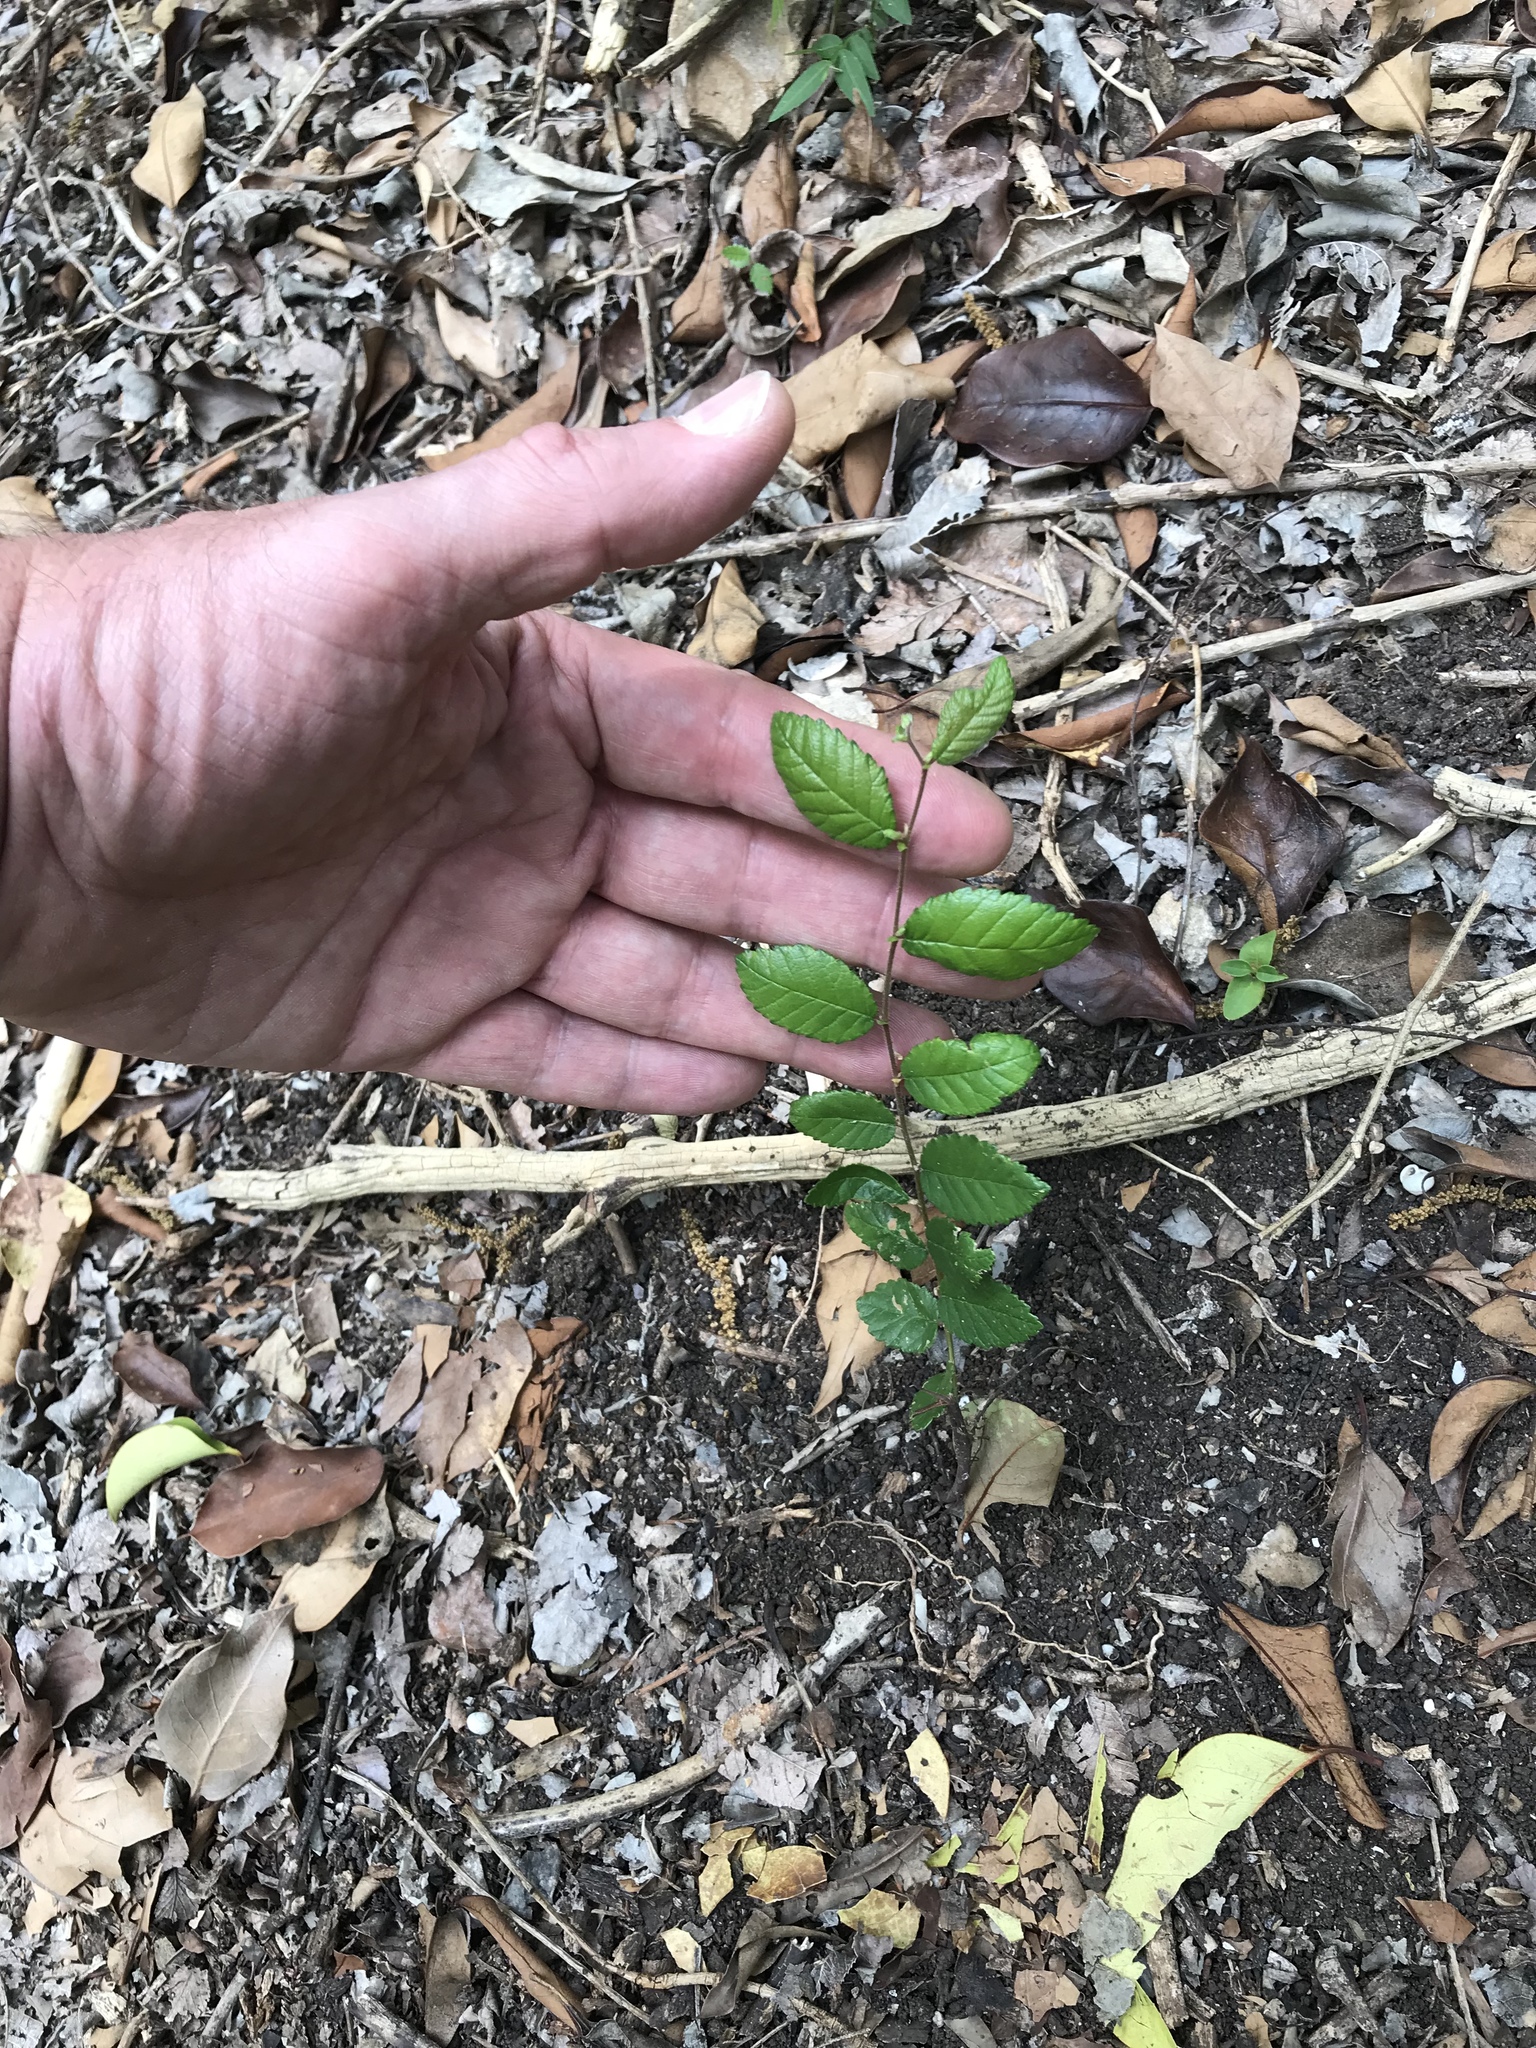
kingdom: Plantae
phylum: Tracheophyta
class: Magnoliopsida
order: Rosales
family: Ulmaceae
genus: Ulmus
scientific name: Ulmus crassifolia
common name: Basket elm
